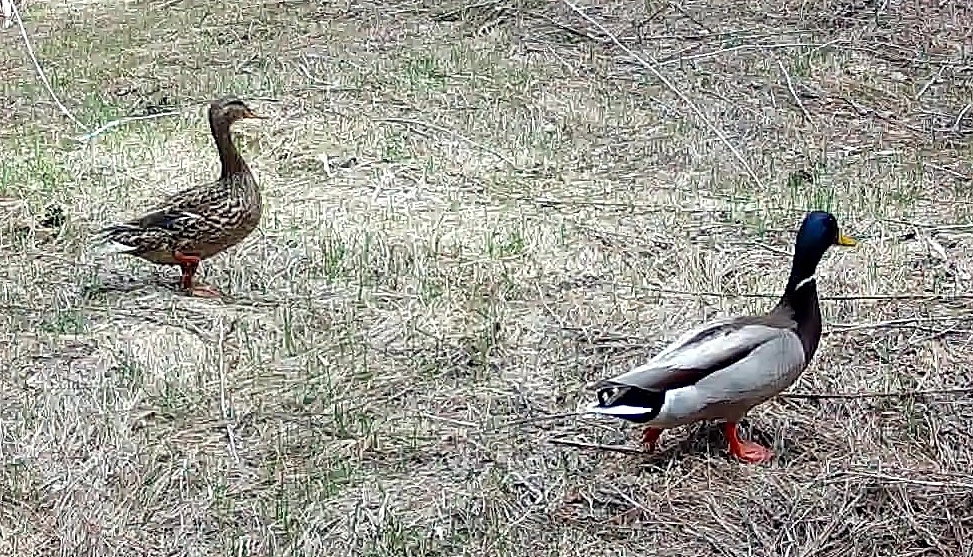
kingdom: Animalia
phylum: Chordata
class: Aves
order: Anseriformes
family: Anatidae
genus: Anas
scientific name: Anas platyrhynchos
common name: Mallard
